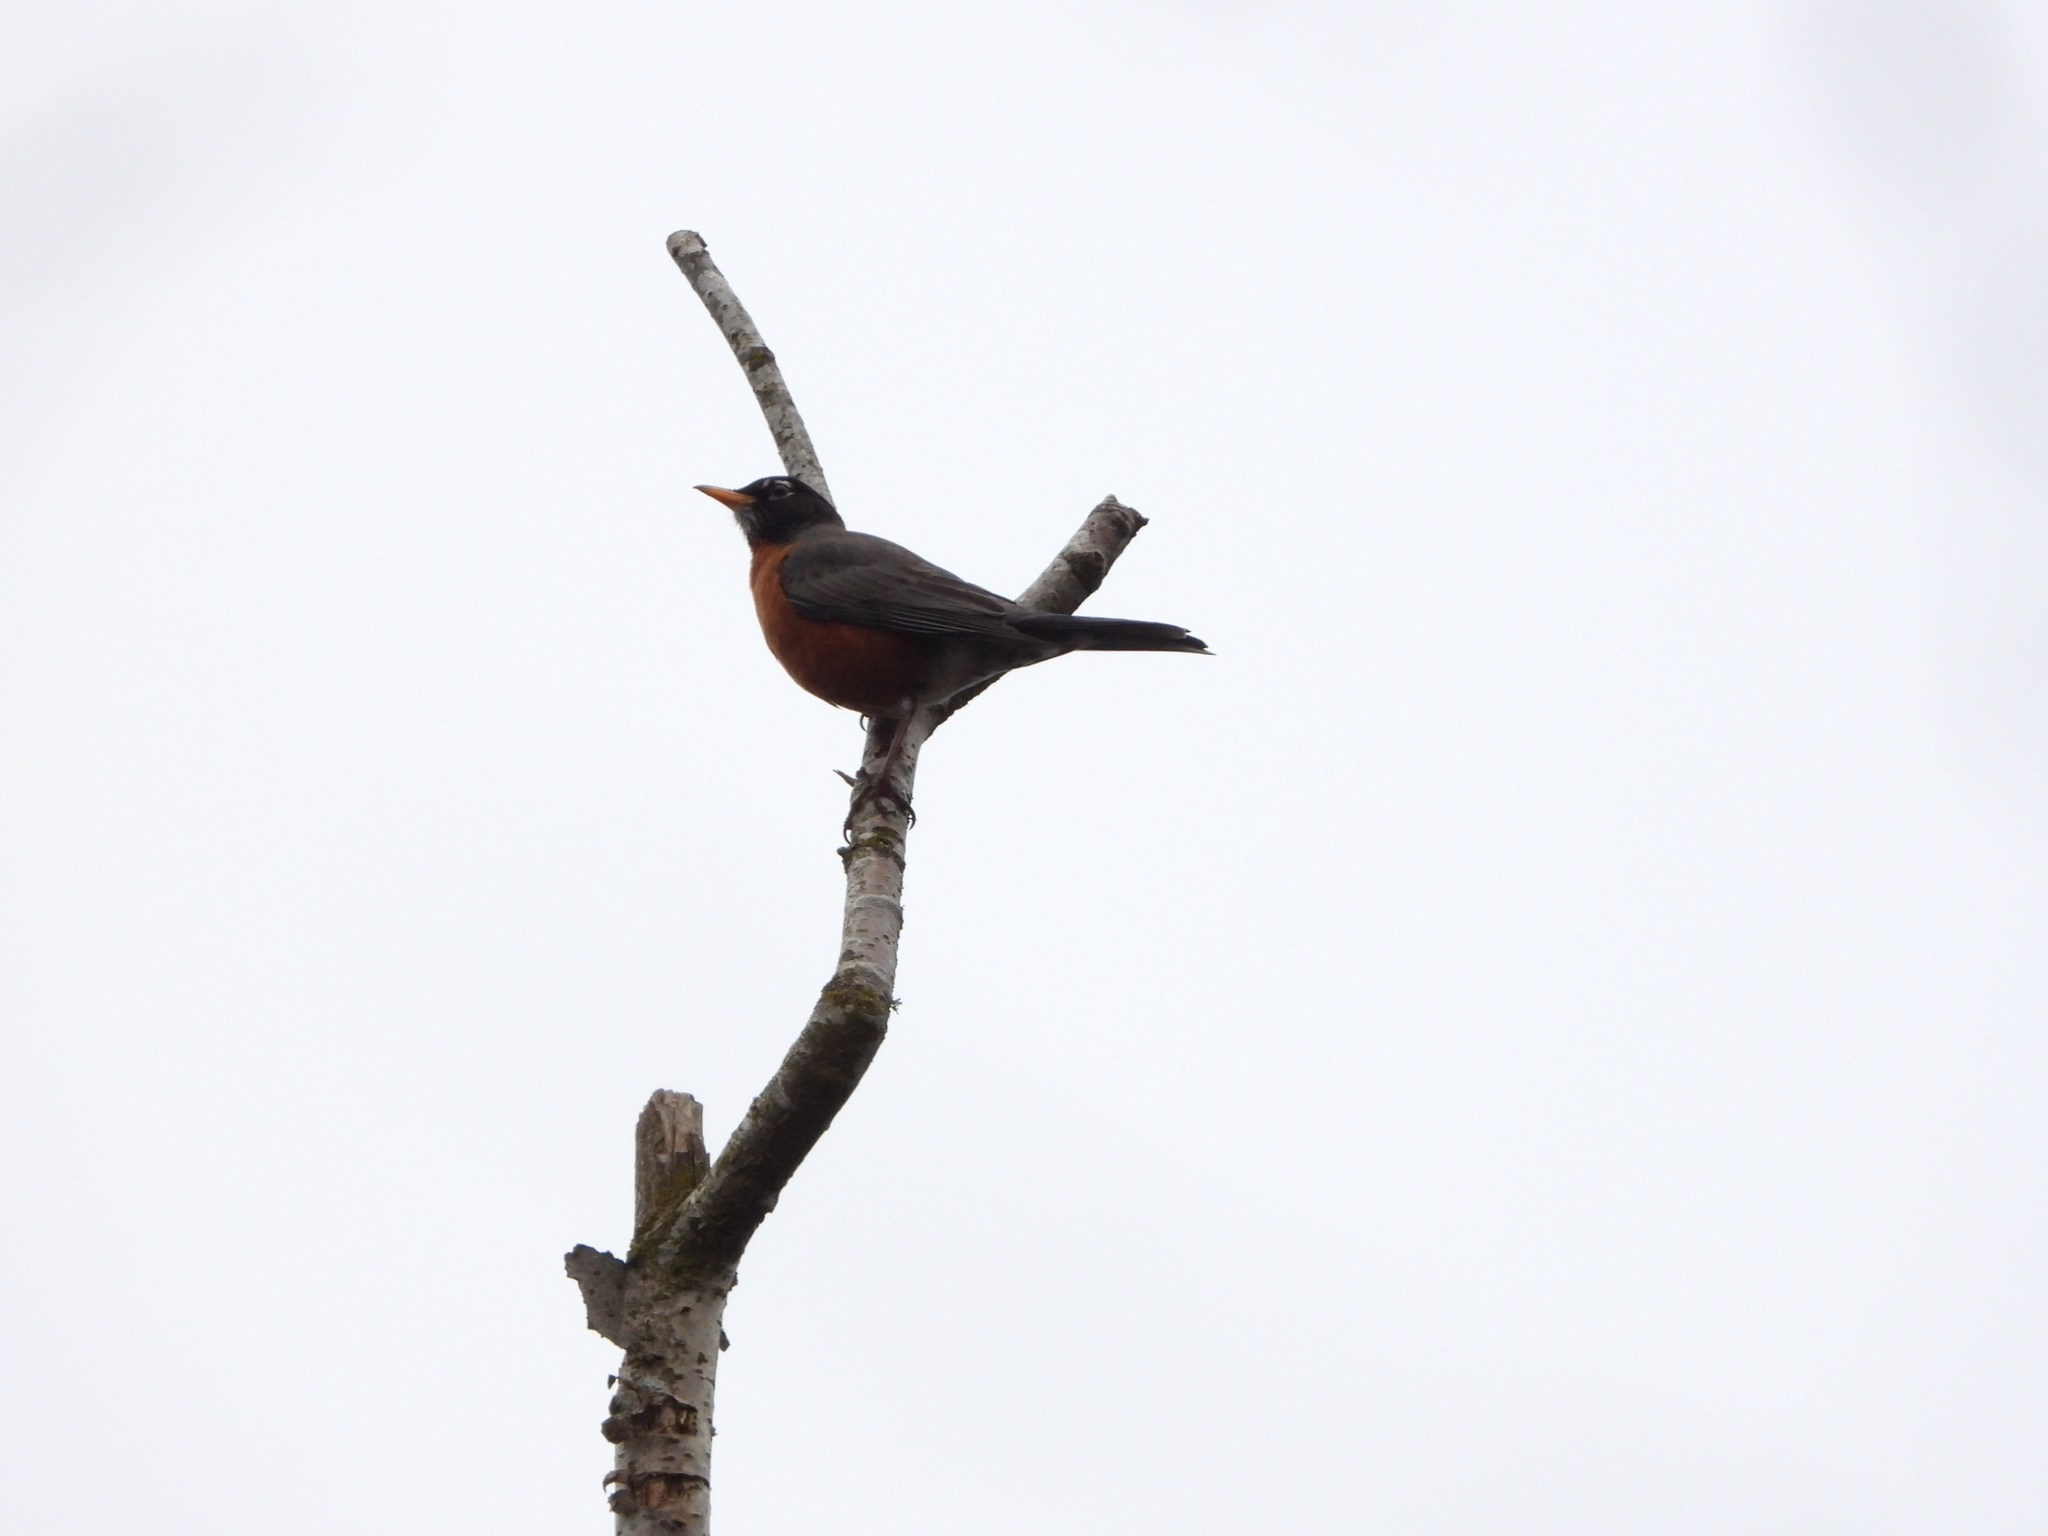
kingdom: Animalia
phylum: Chordata
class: Aves
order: Passeriformes
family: Turdidae
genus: Turdus
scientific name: Turdus migratorius
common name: American robin
